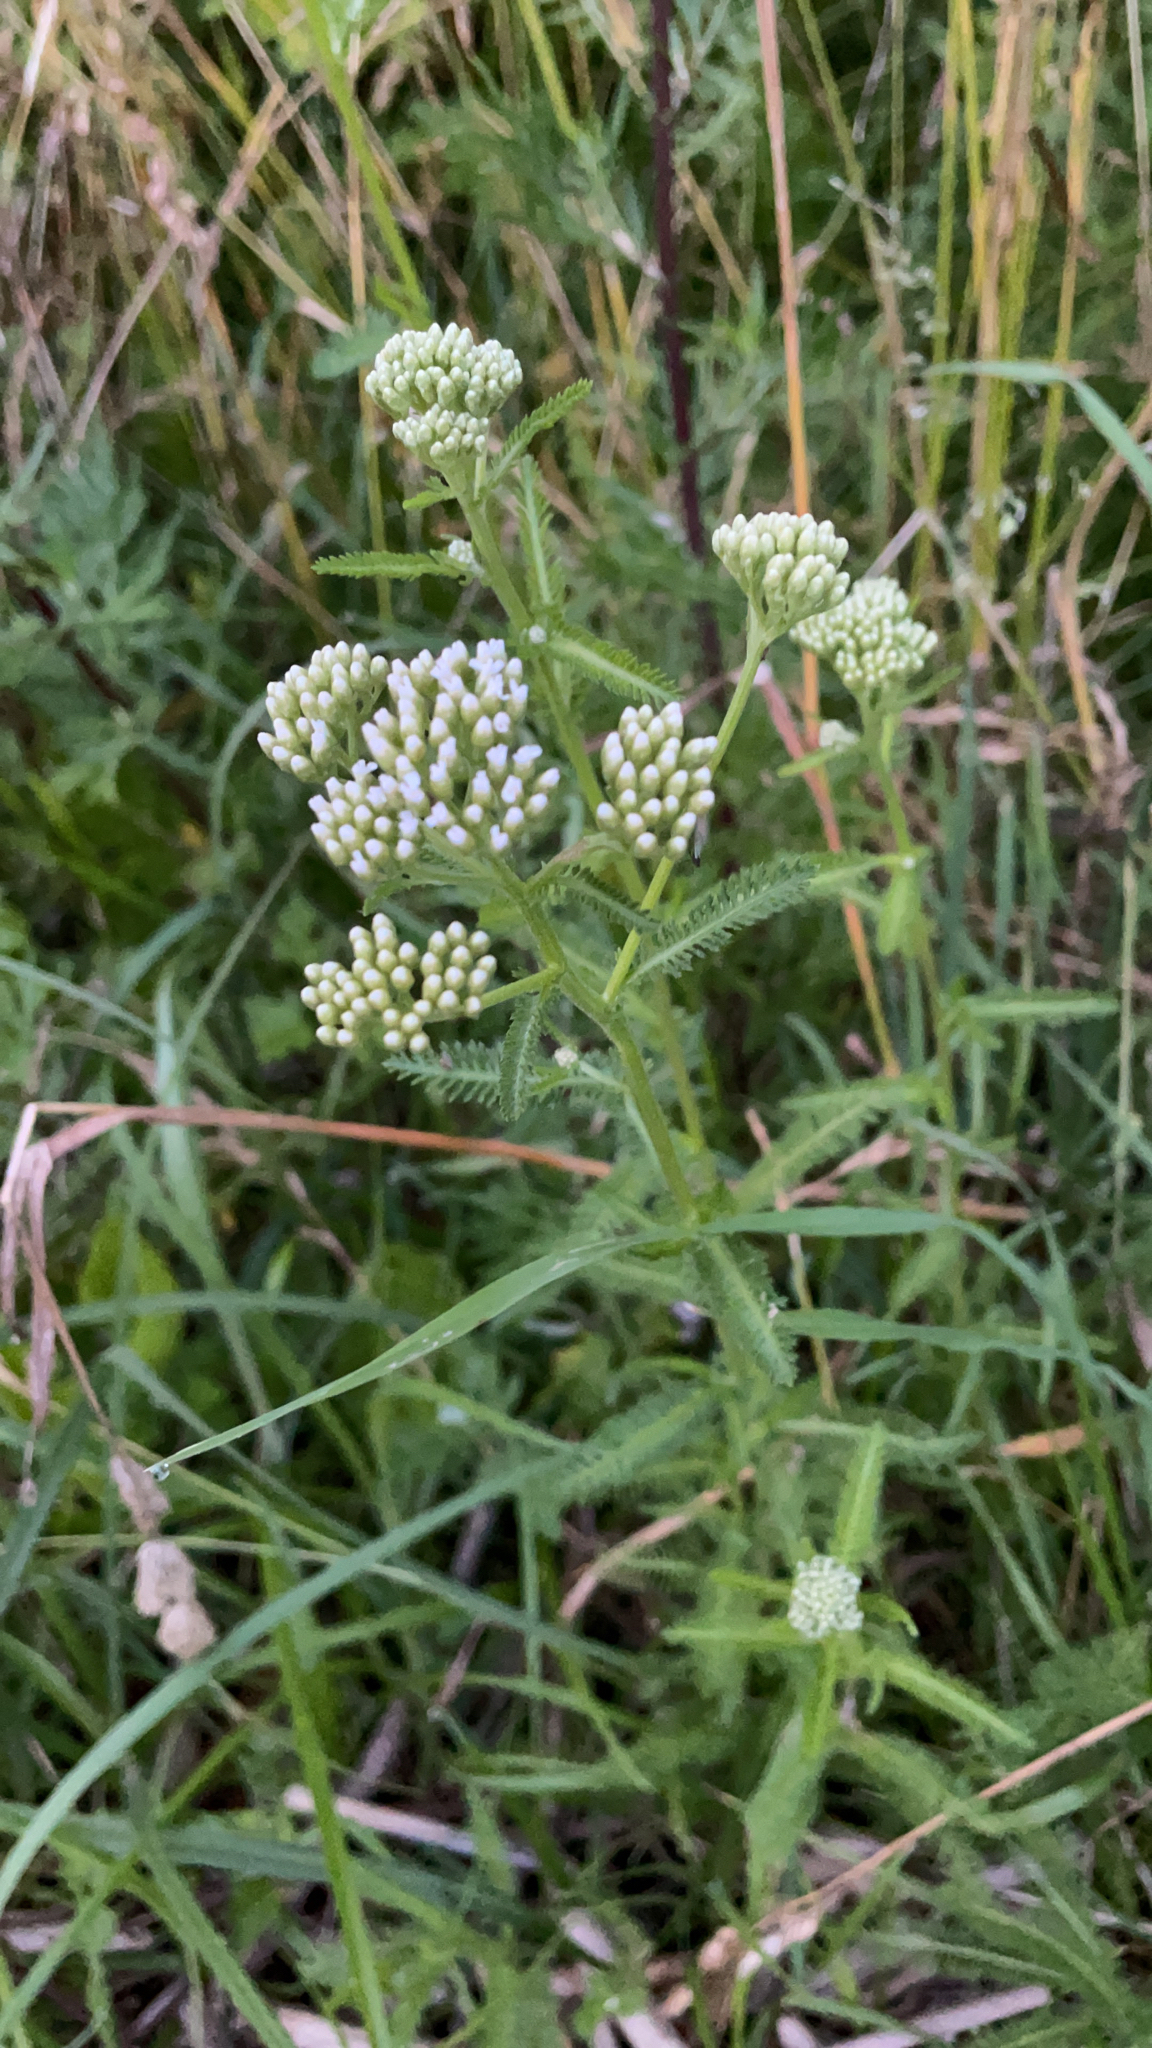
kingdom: Plantae
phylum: Tracheophyta
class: Magnoliopsida
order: Asterales
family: Asteraceae
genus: Achillea
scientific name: Achillea millefolium
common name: Yarrow
